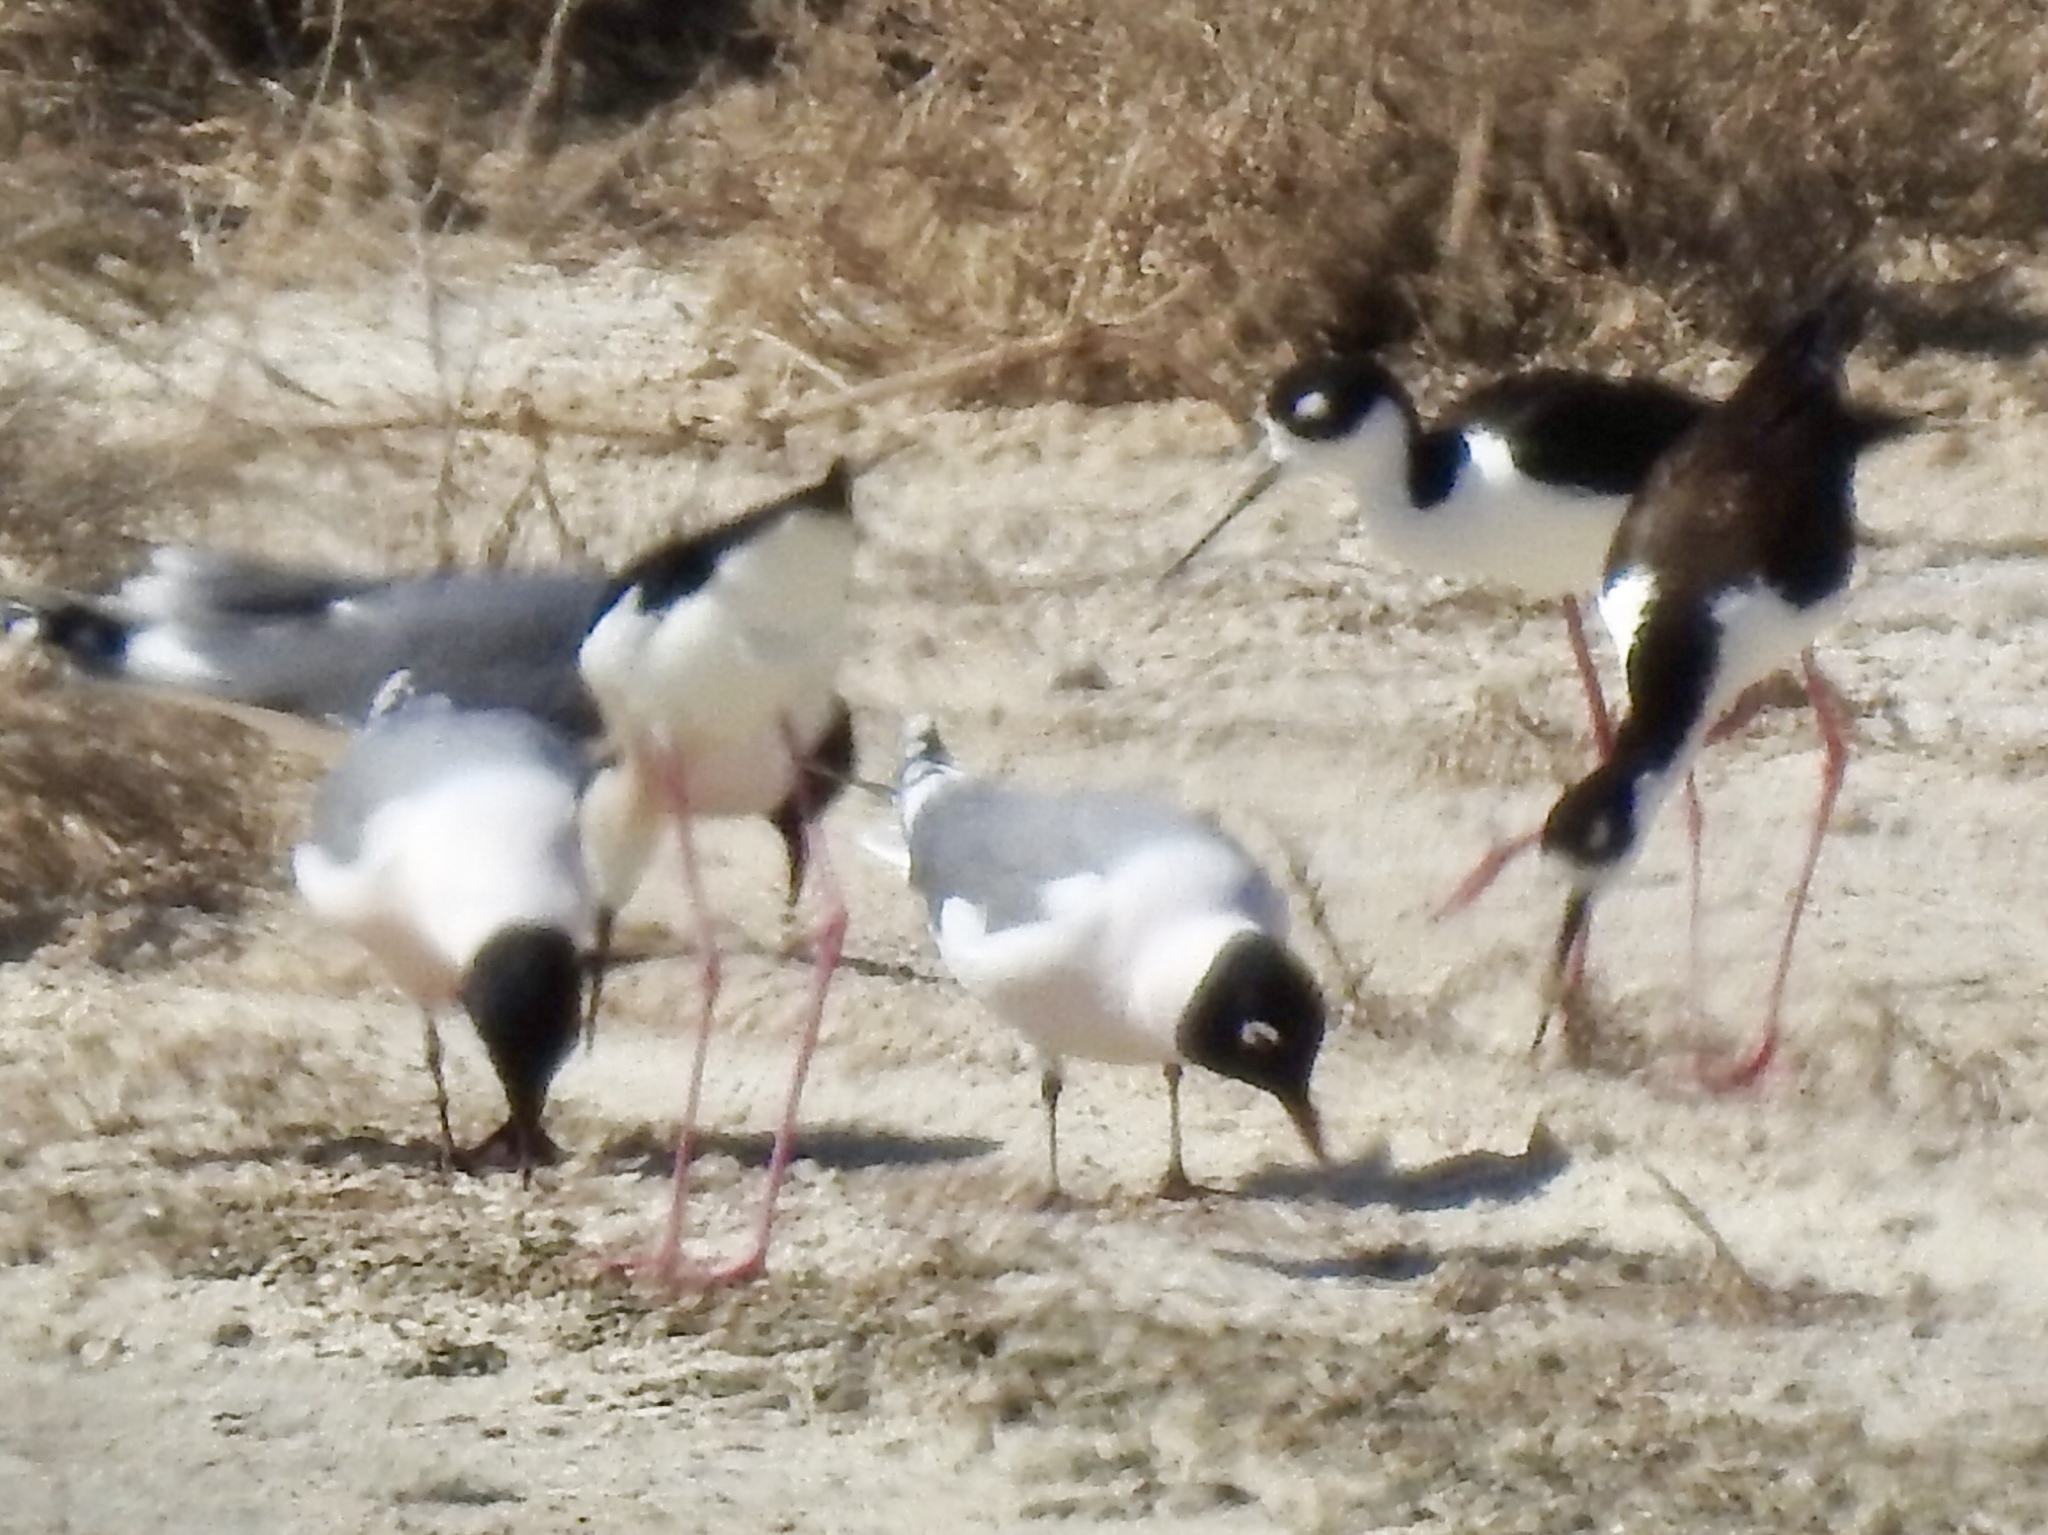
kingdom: Animalia
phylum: Chordata
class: Aves
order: Charadriiformes
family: Laridae
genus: Leucophaeus
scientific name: Leucophaeus pipixcan
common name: Franklin's gull
